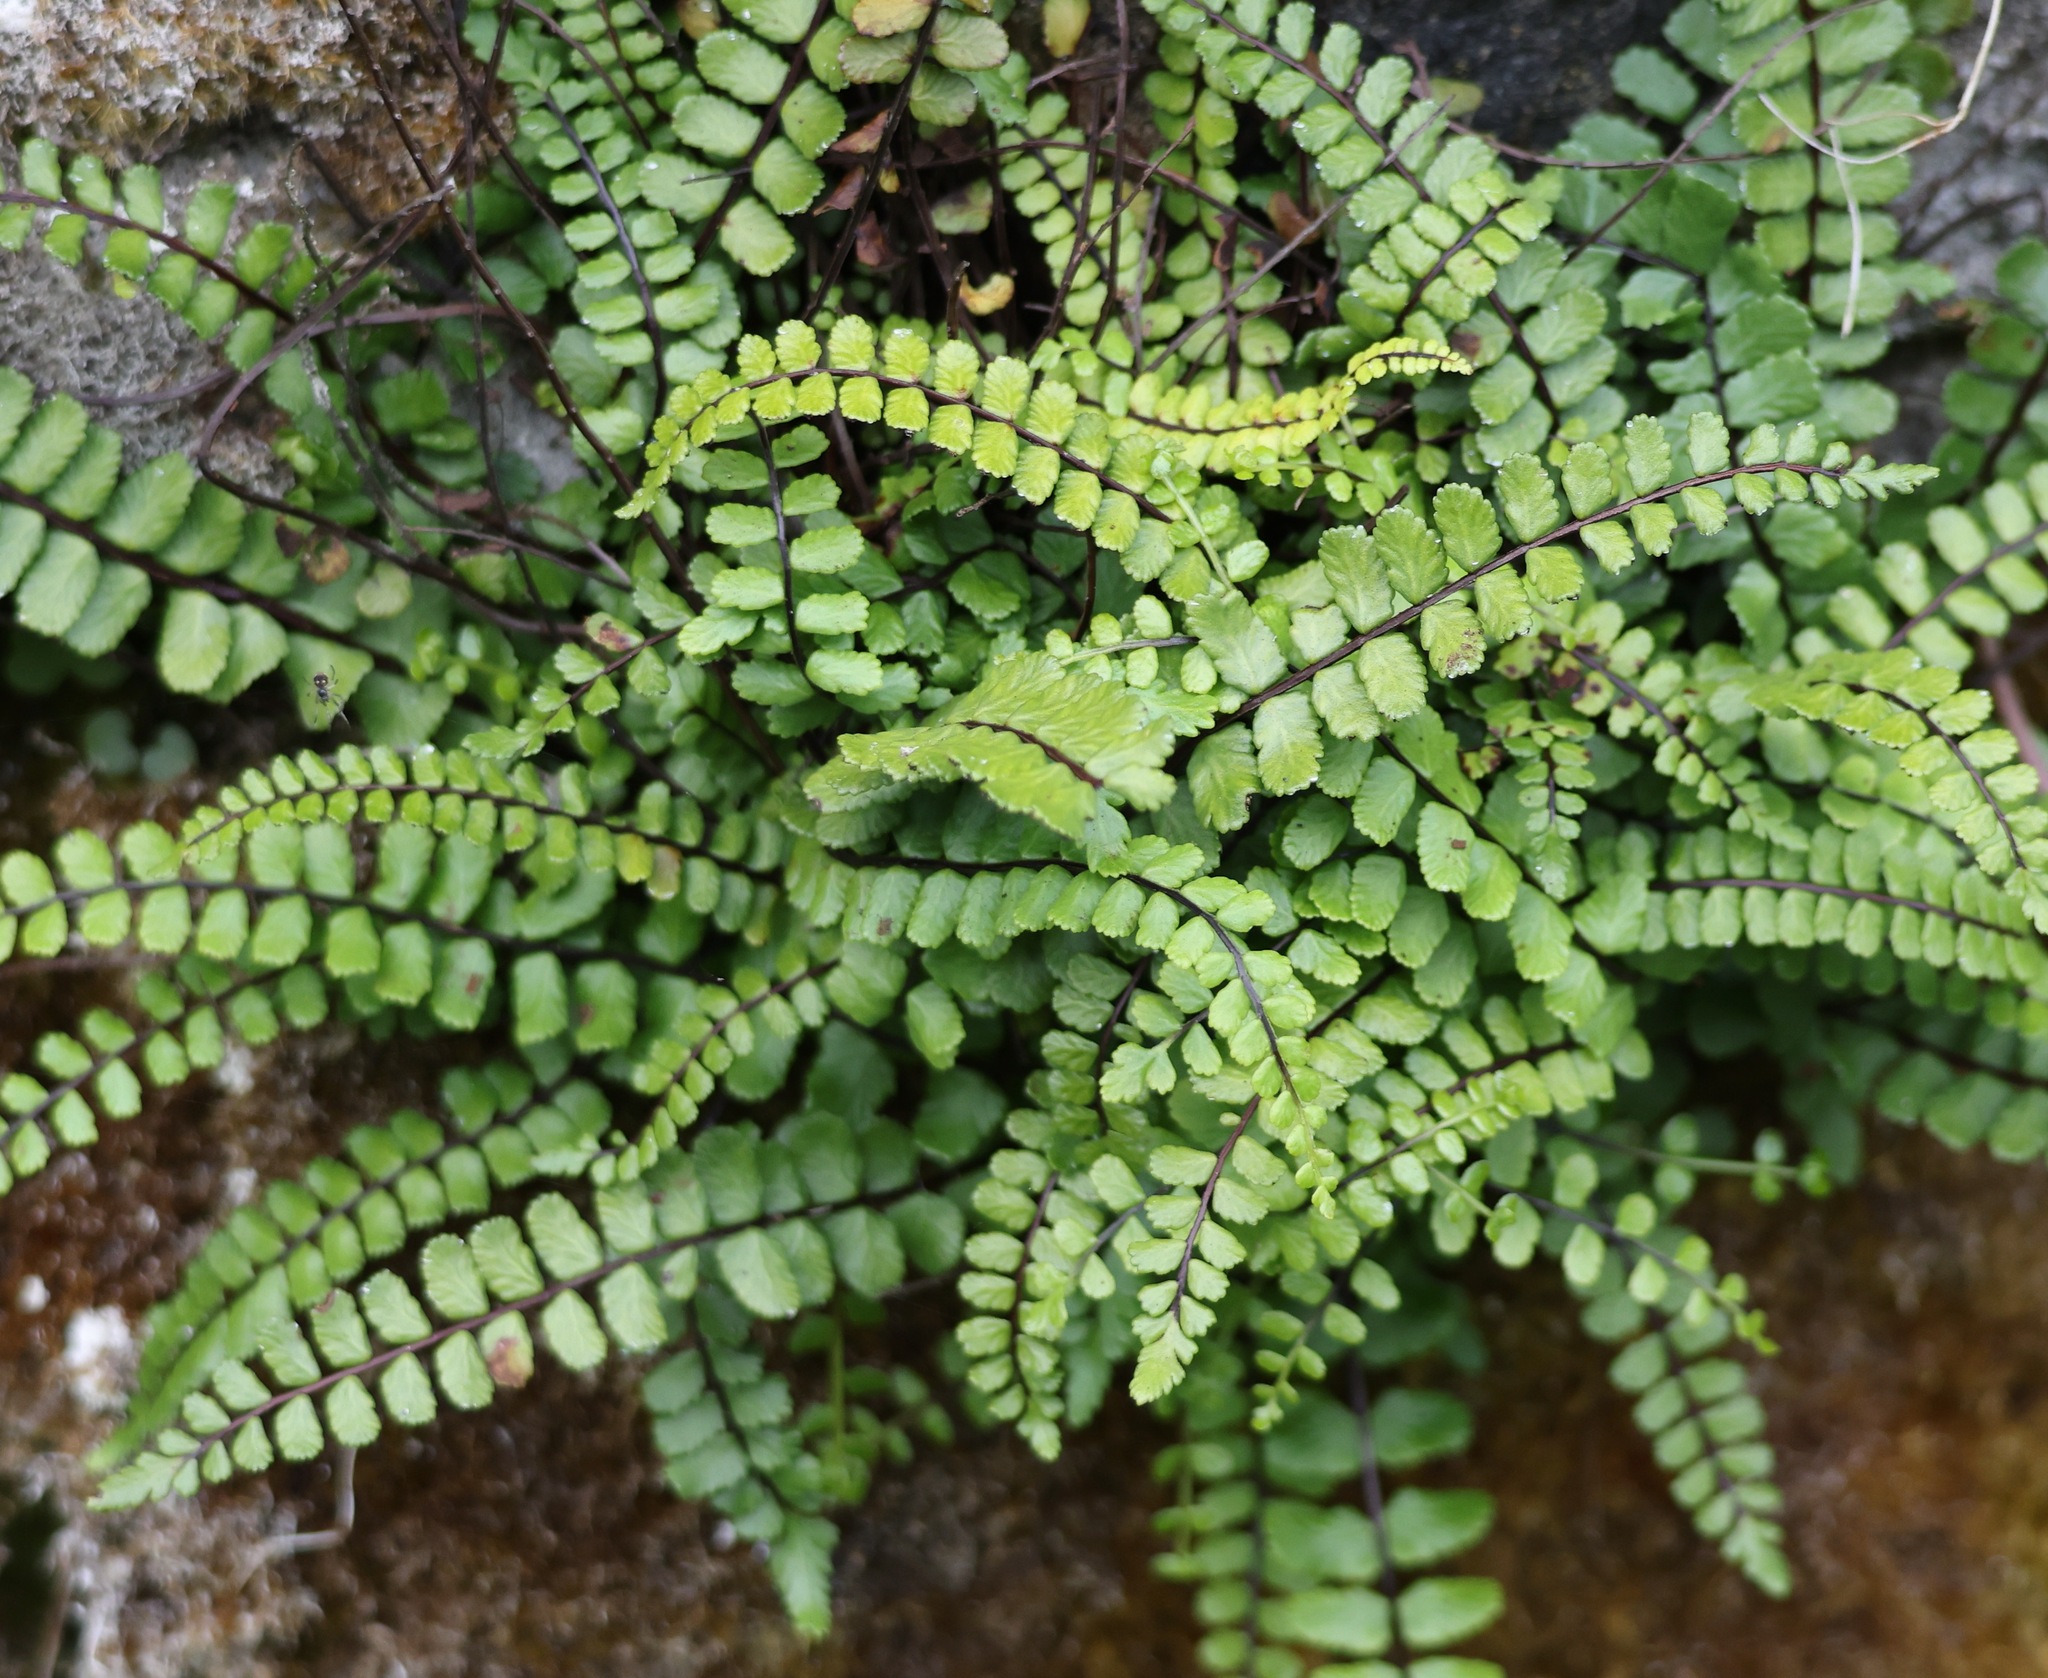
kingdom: Plantae
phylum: Tracheophyta
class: Polypodiopsida
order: Polypodiales
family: Aspleniaceae
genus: Asplenium
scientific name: Asplenium trichomanes
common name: Maidenhair spleenwort
